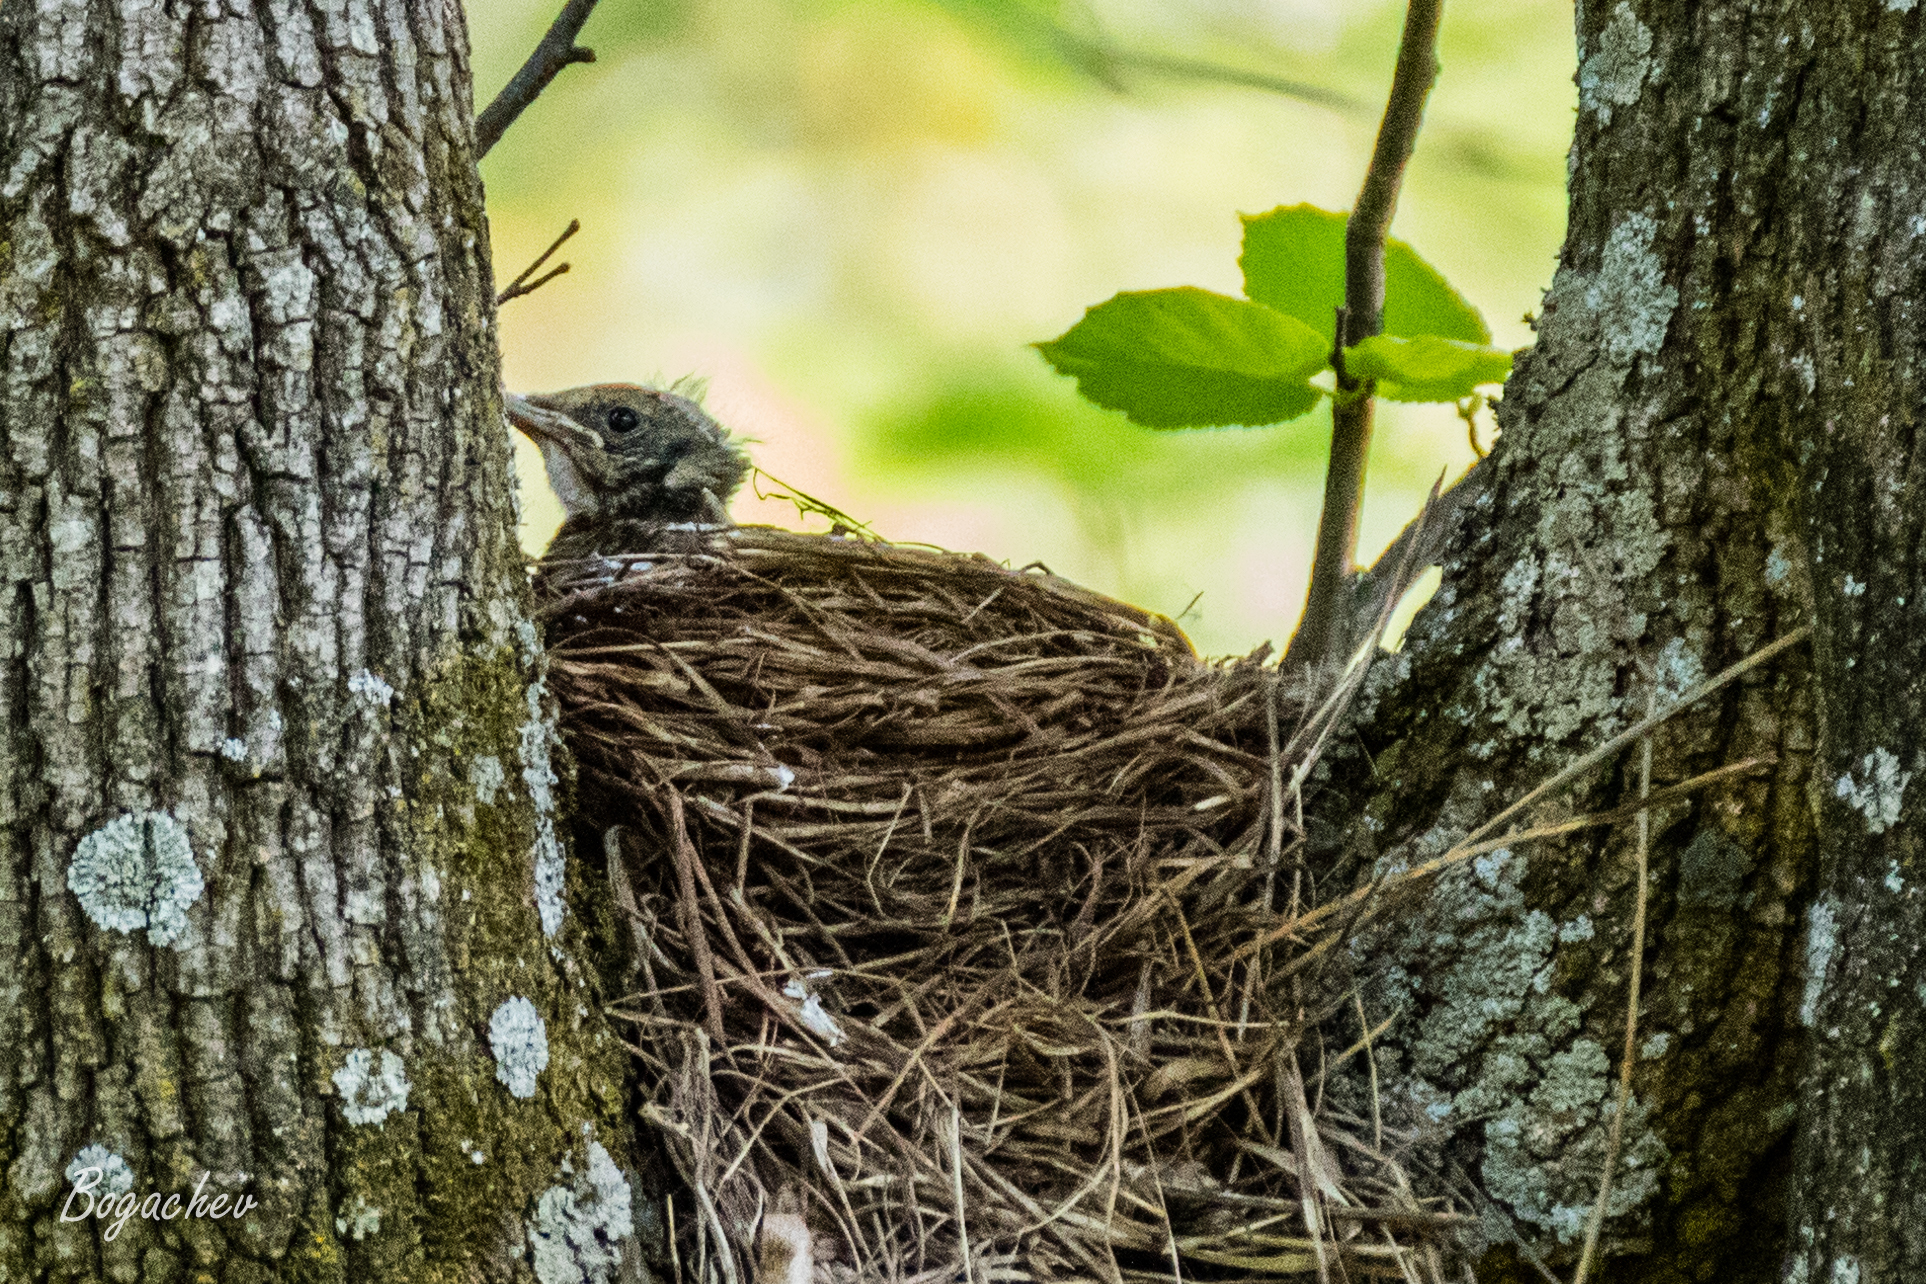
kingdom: Animalia
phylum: Chordata
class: Aves
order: Passeriformes
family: Turdidae
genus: Turdus
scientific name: Turdus pilaris
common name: Fieldfare
